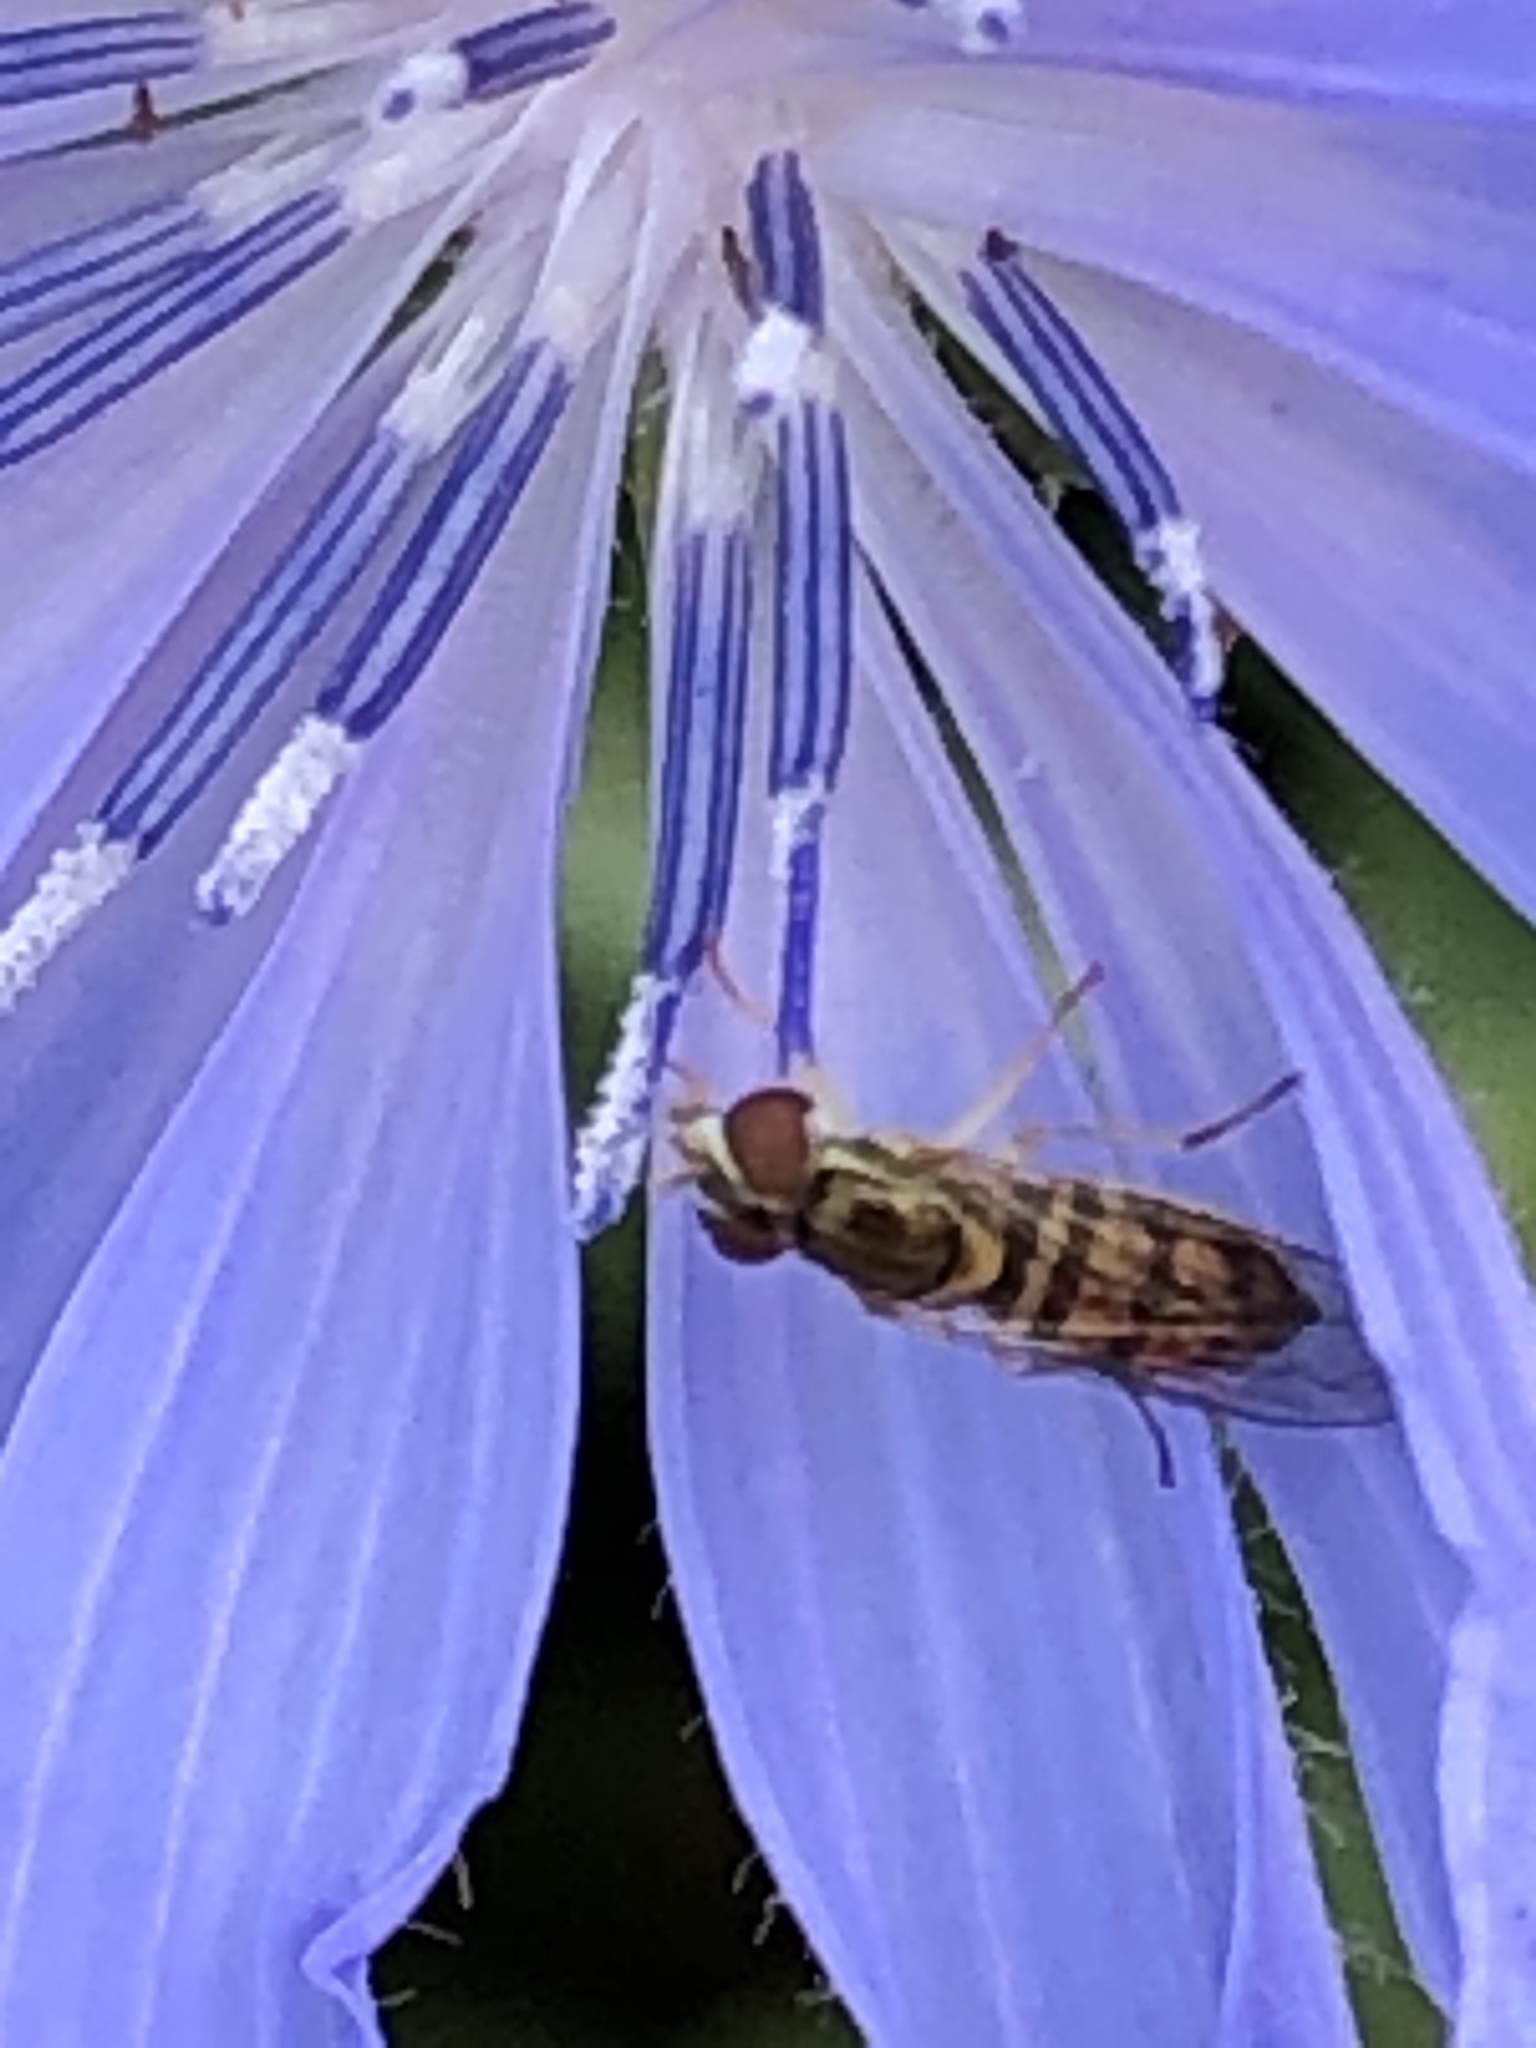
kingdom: Animalia
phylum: Arthropoda
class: Insecta
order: Diptera
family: Syrphidae
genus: Toxomerus
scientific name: Toxomerus marginatus
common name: Syrphid fly
